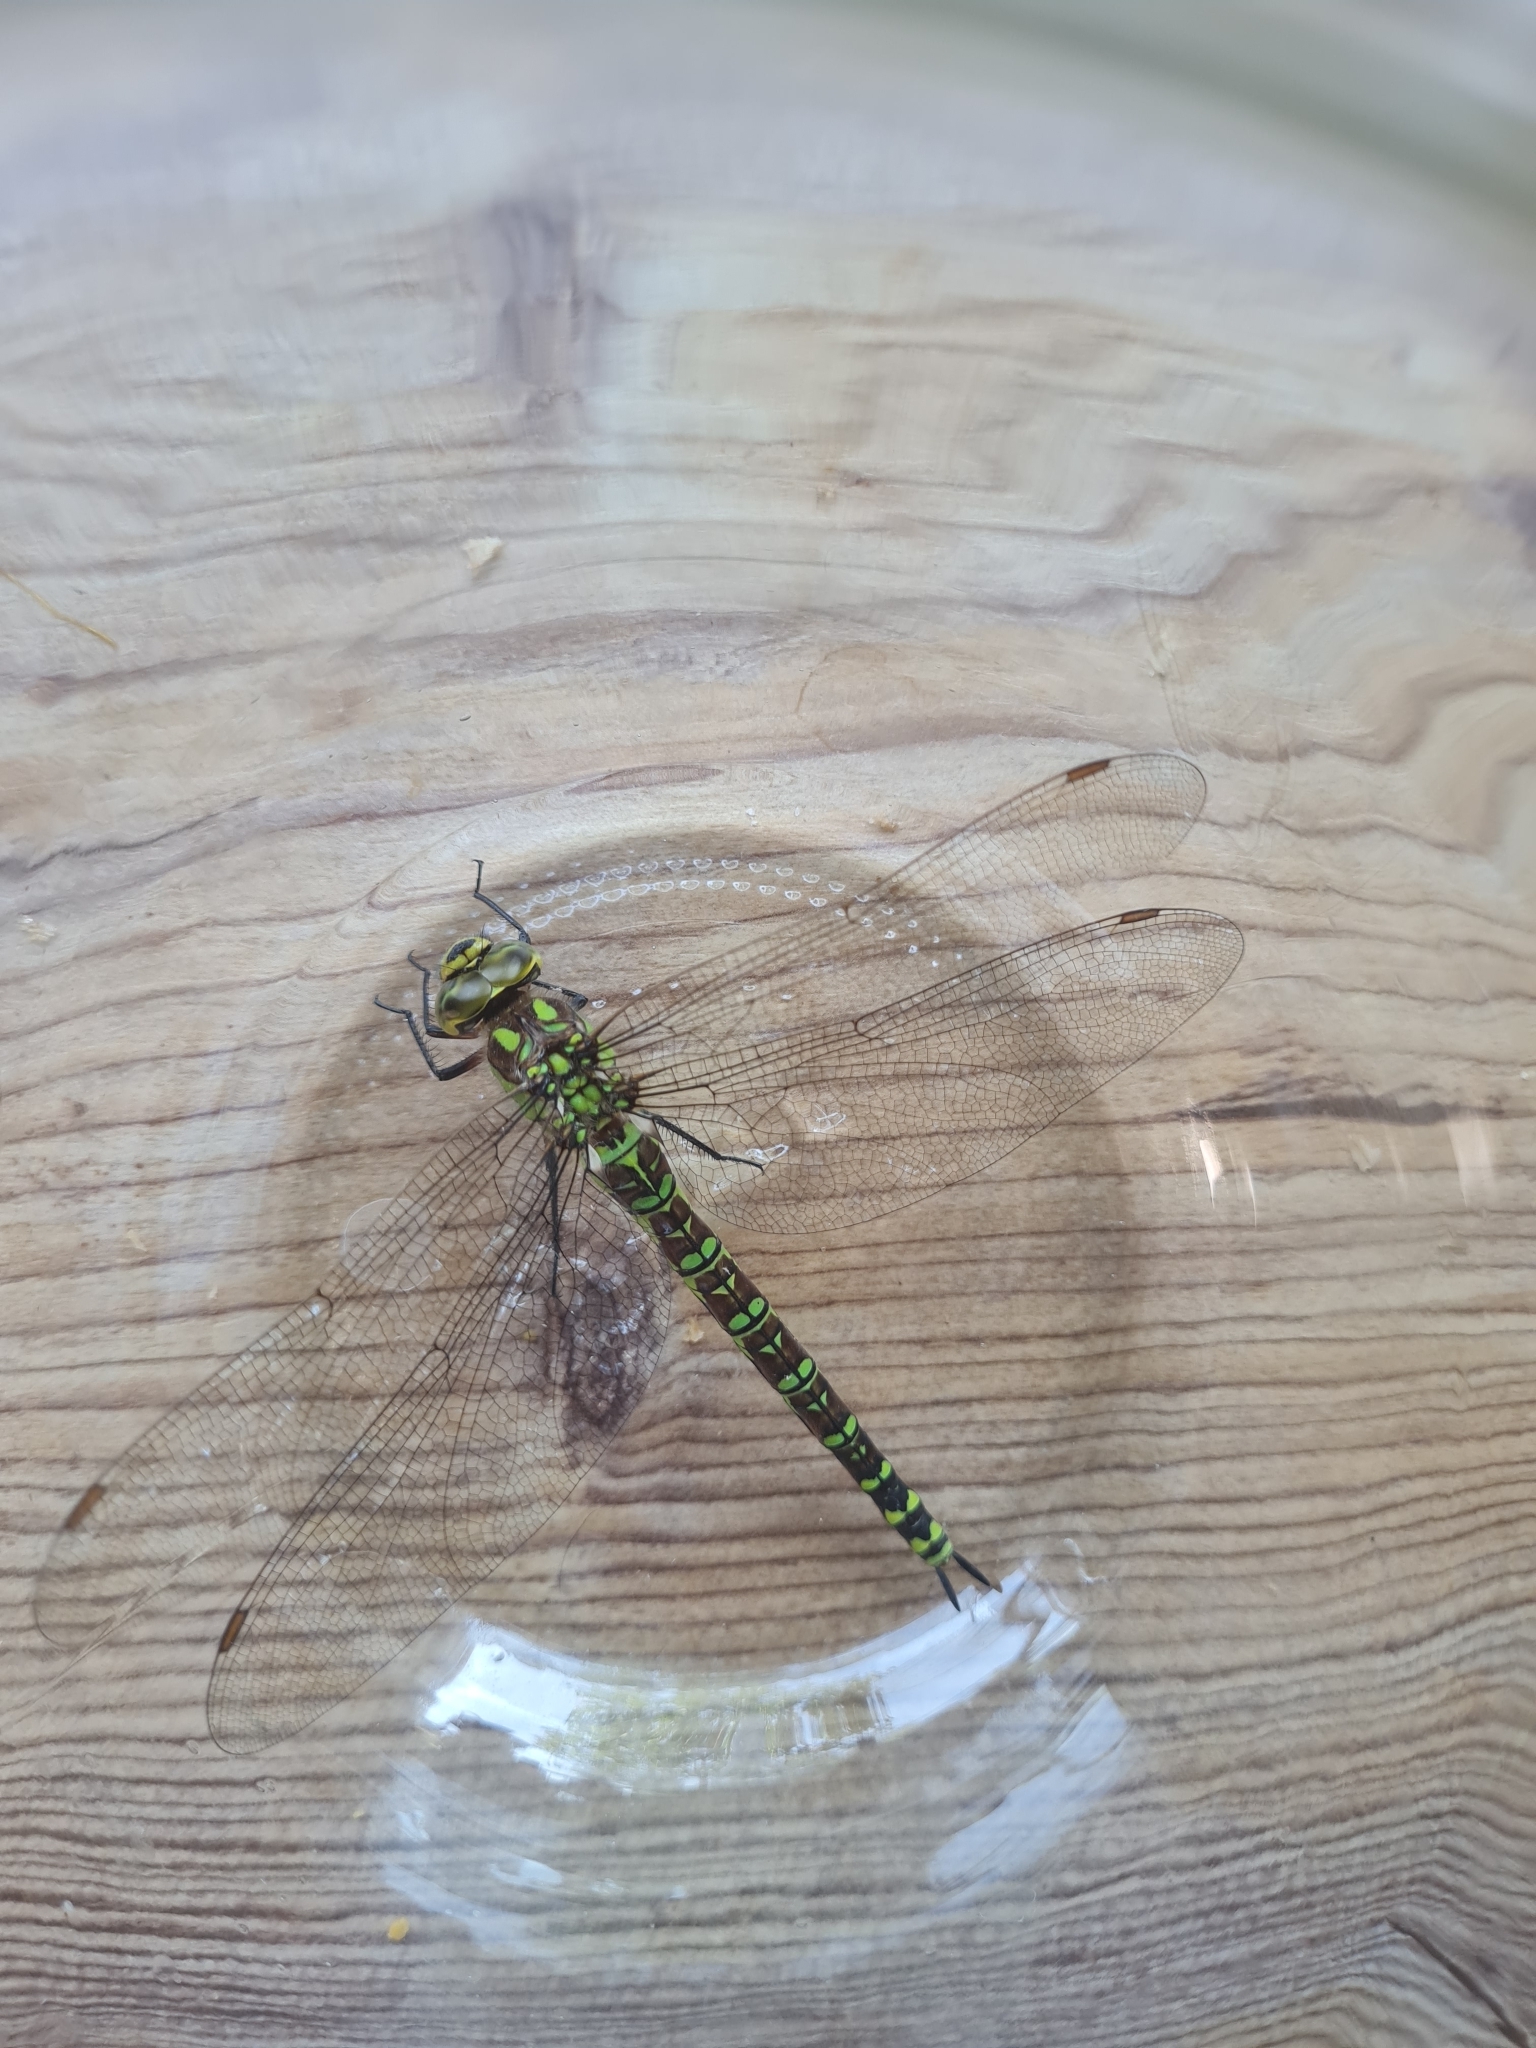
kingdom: Animalia
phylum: Arthropoda
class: Insecta
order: Odonata
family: Aeshnidae
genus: Aeshna
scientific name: Aeshna cyanea
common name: Southern hawker
